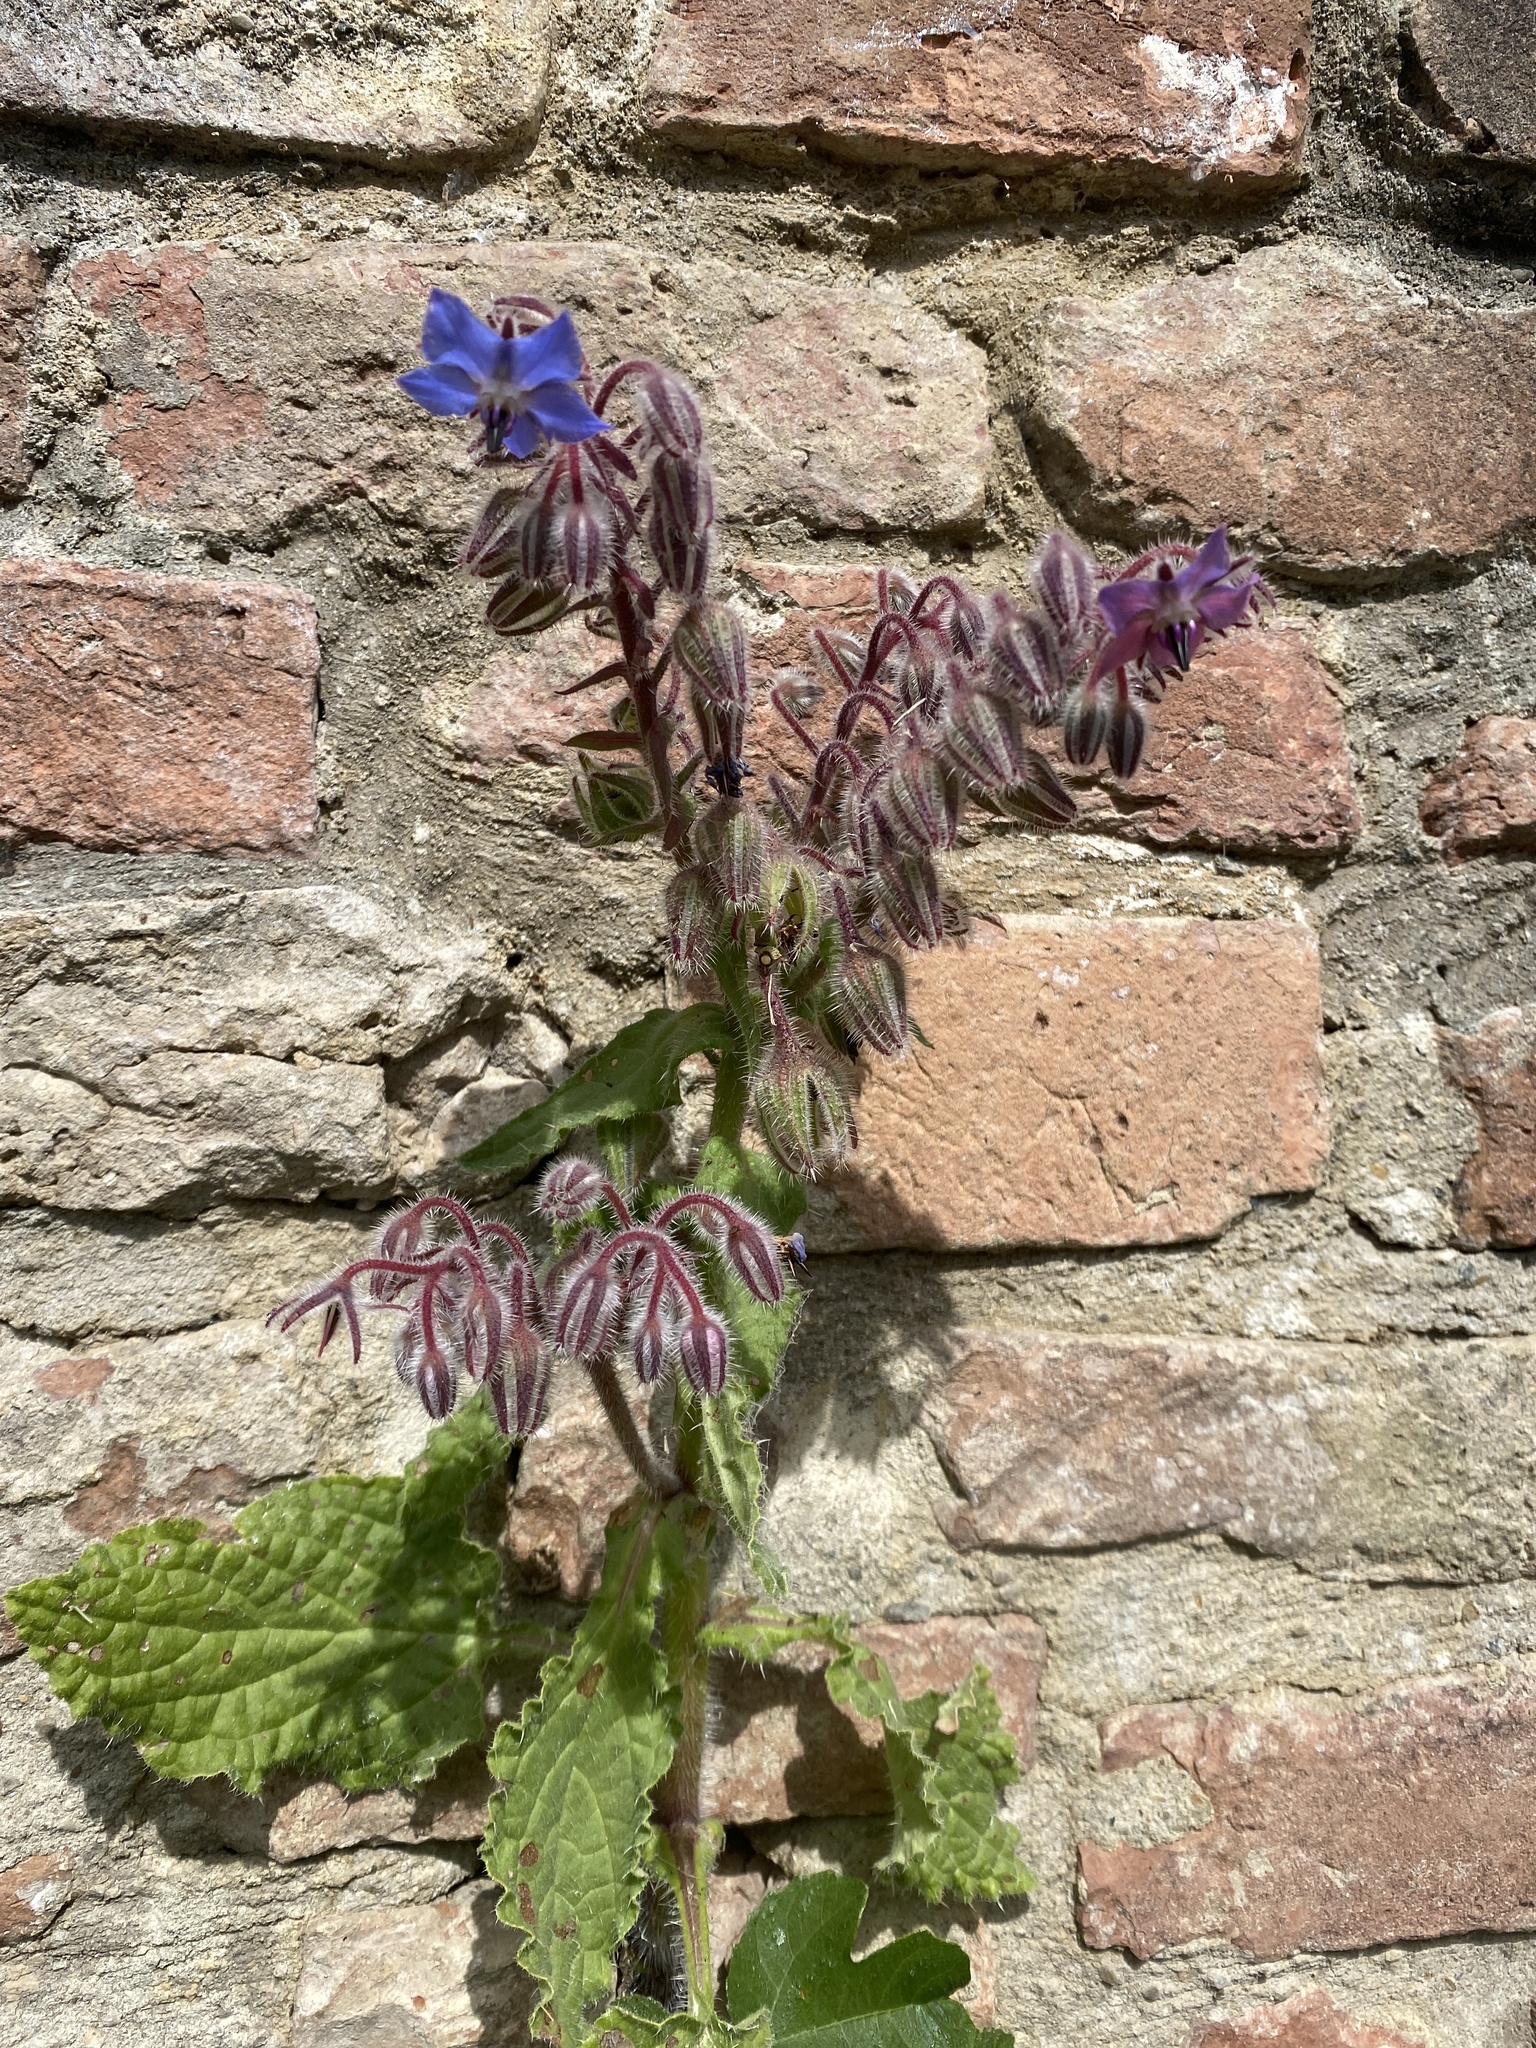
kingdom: Plantae
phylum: Tracheophyta
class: Magnoliopsida
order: Boraginales
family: Boraginaceae
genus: Borago
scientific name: Borago officinalis
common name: Borage
